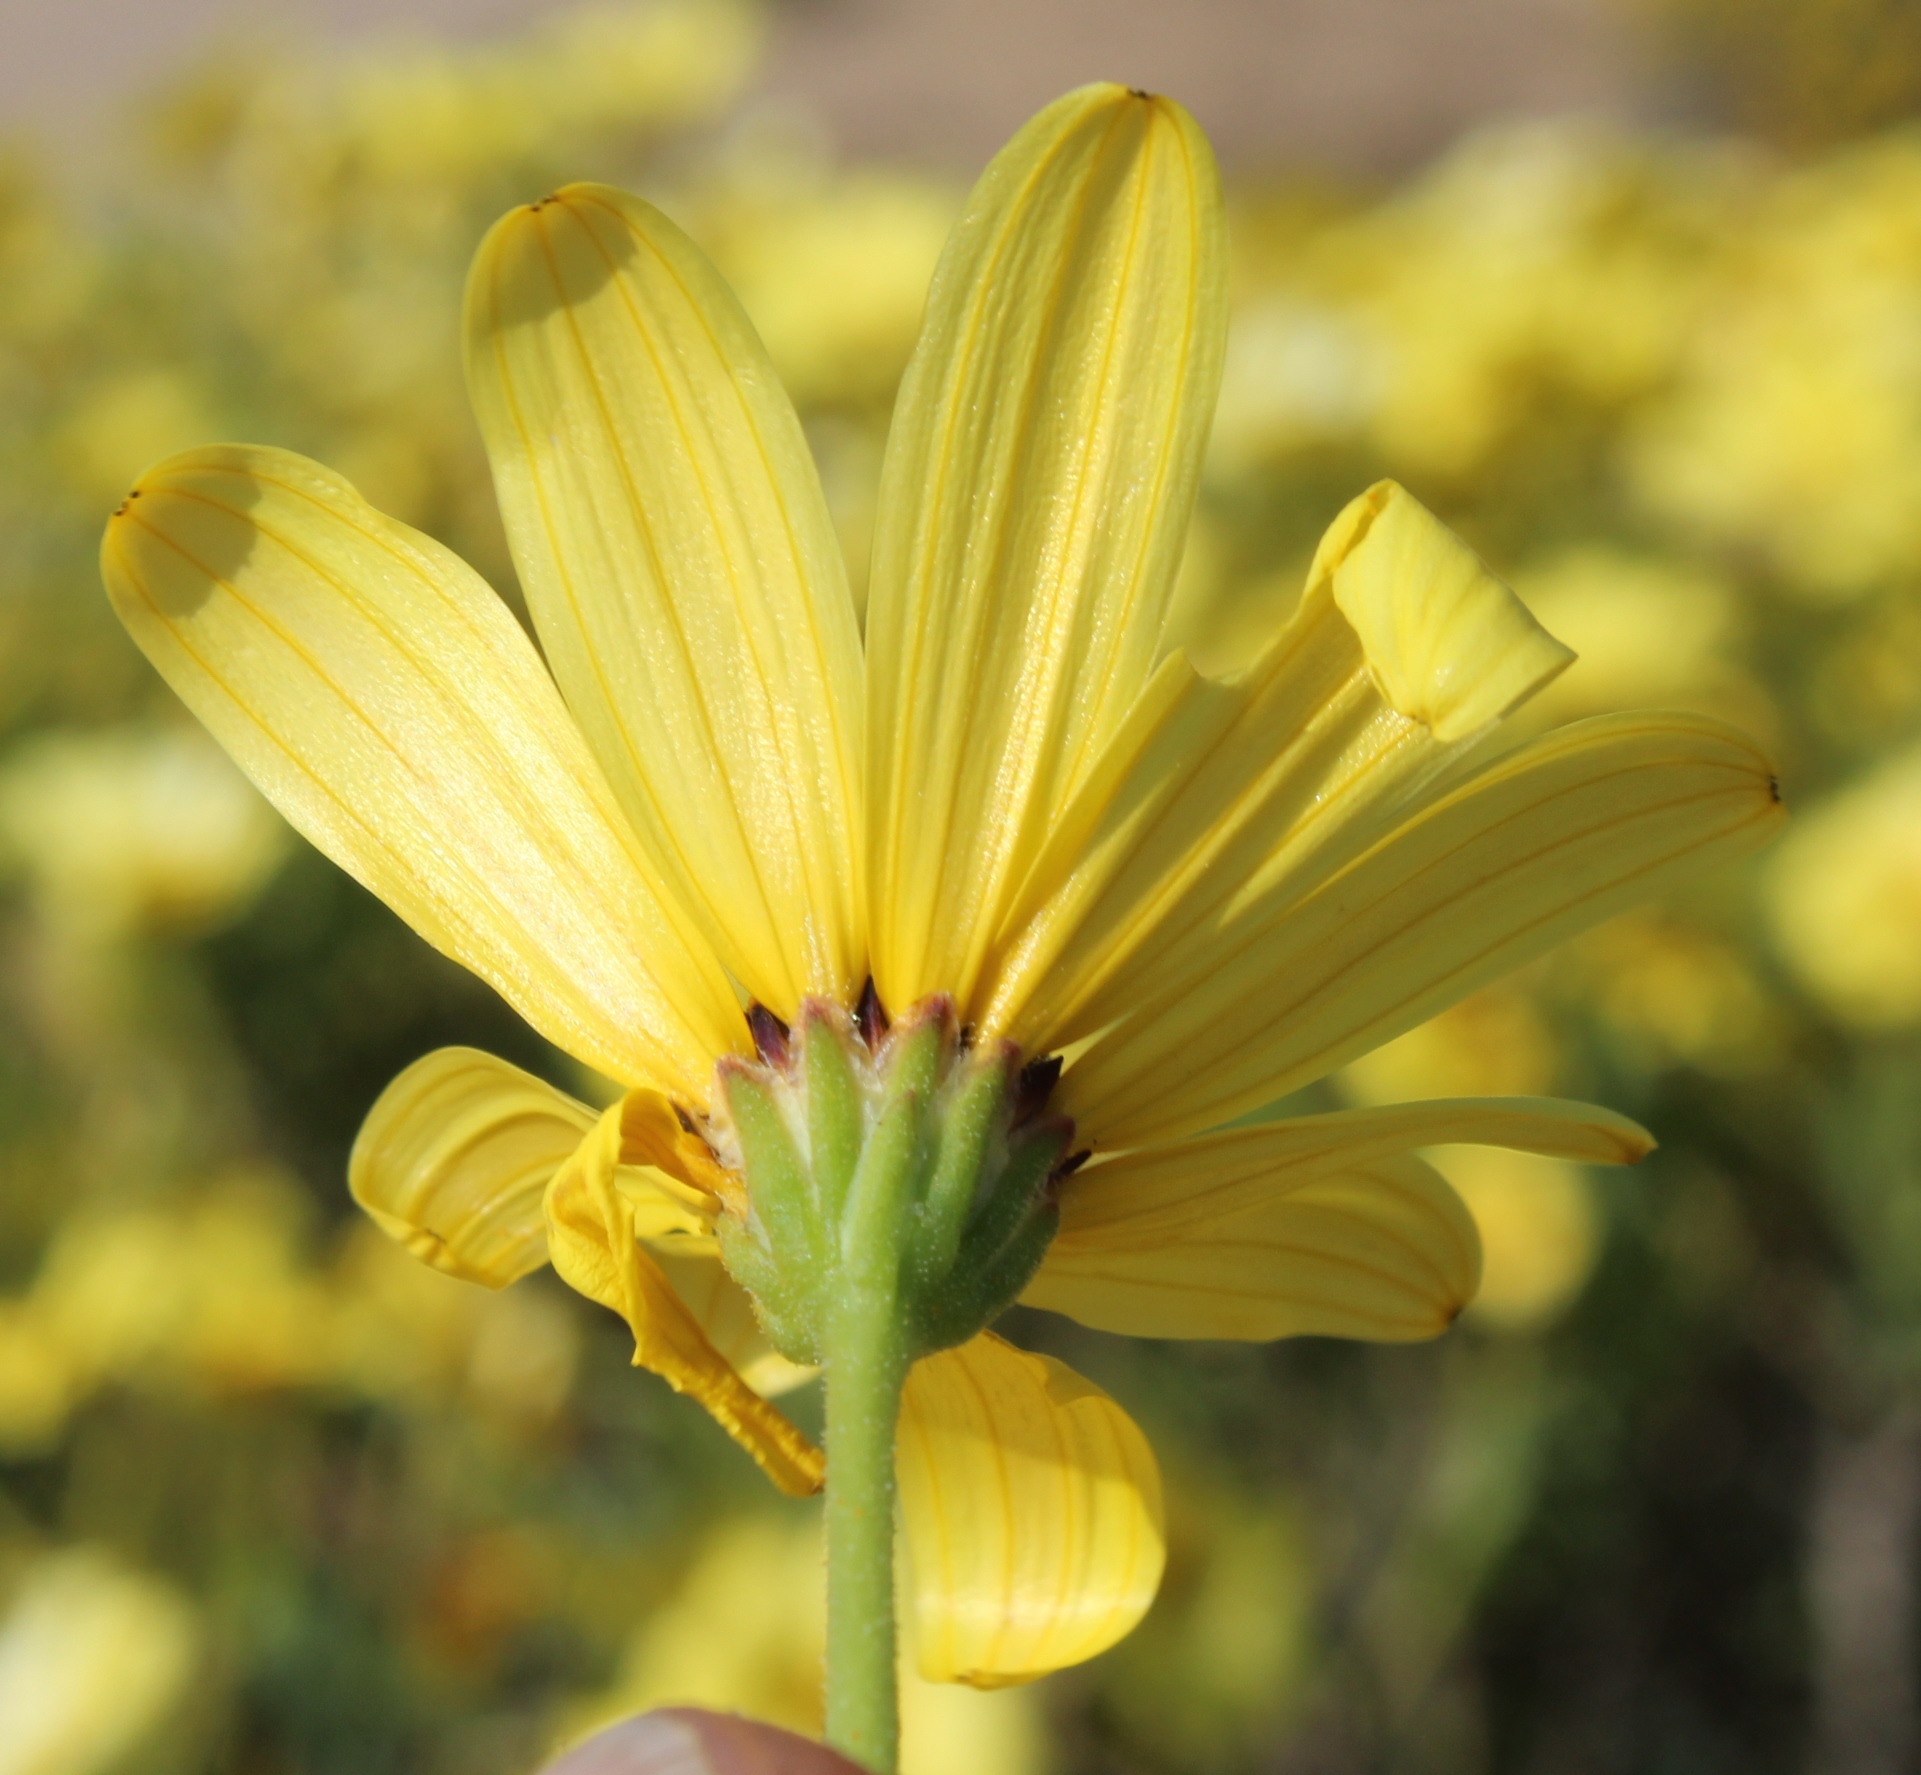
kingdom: Plantae
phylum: Tracheophyta
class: Magnoliopsida
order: Asterales
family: Asteraceae
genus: Osteospermum
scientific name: Osteospermum oppositifolium
